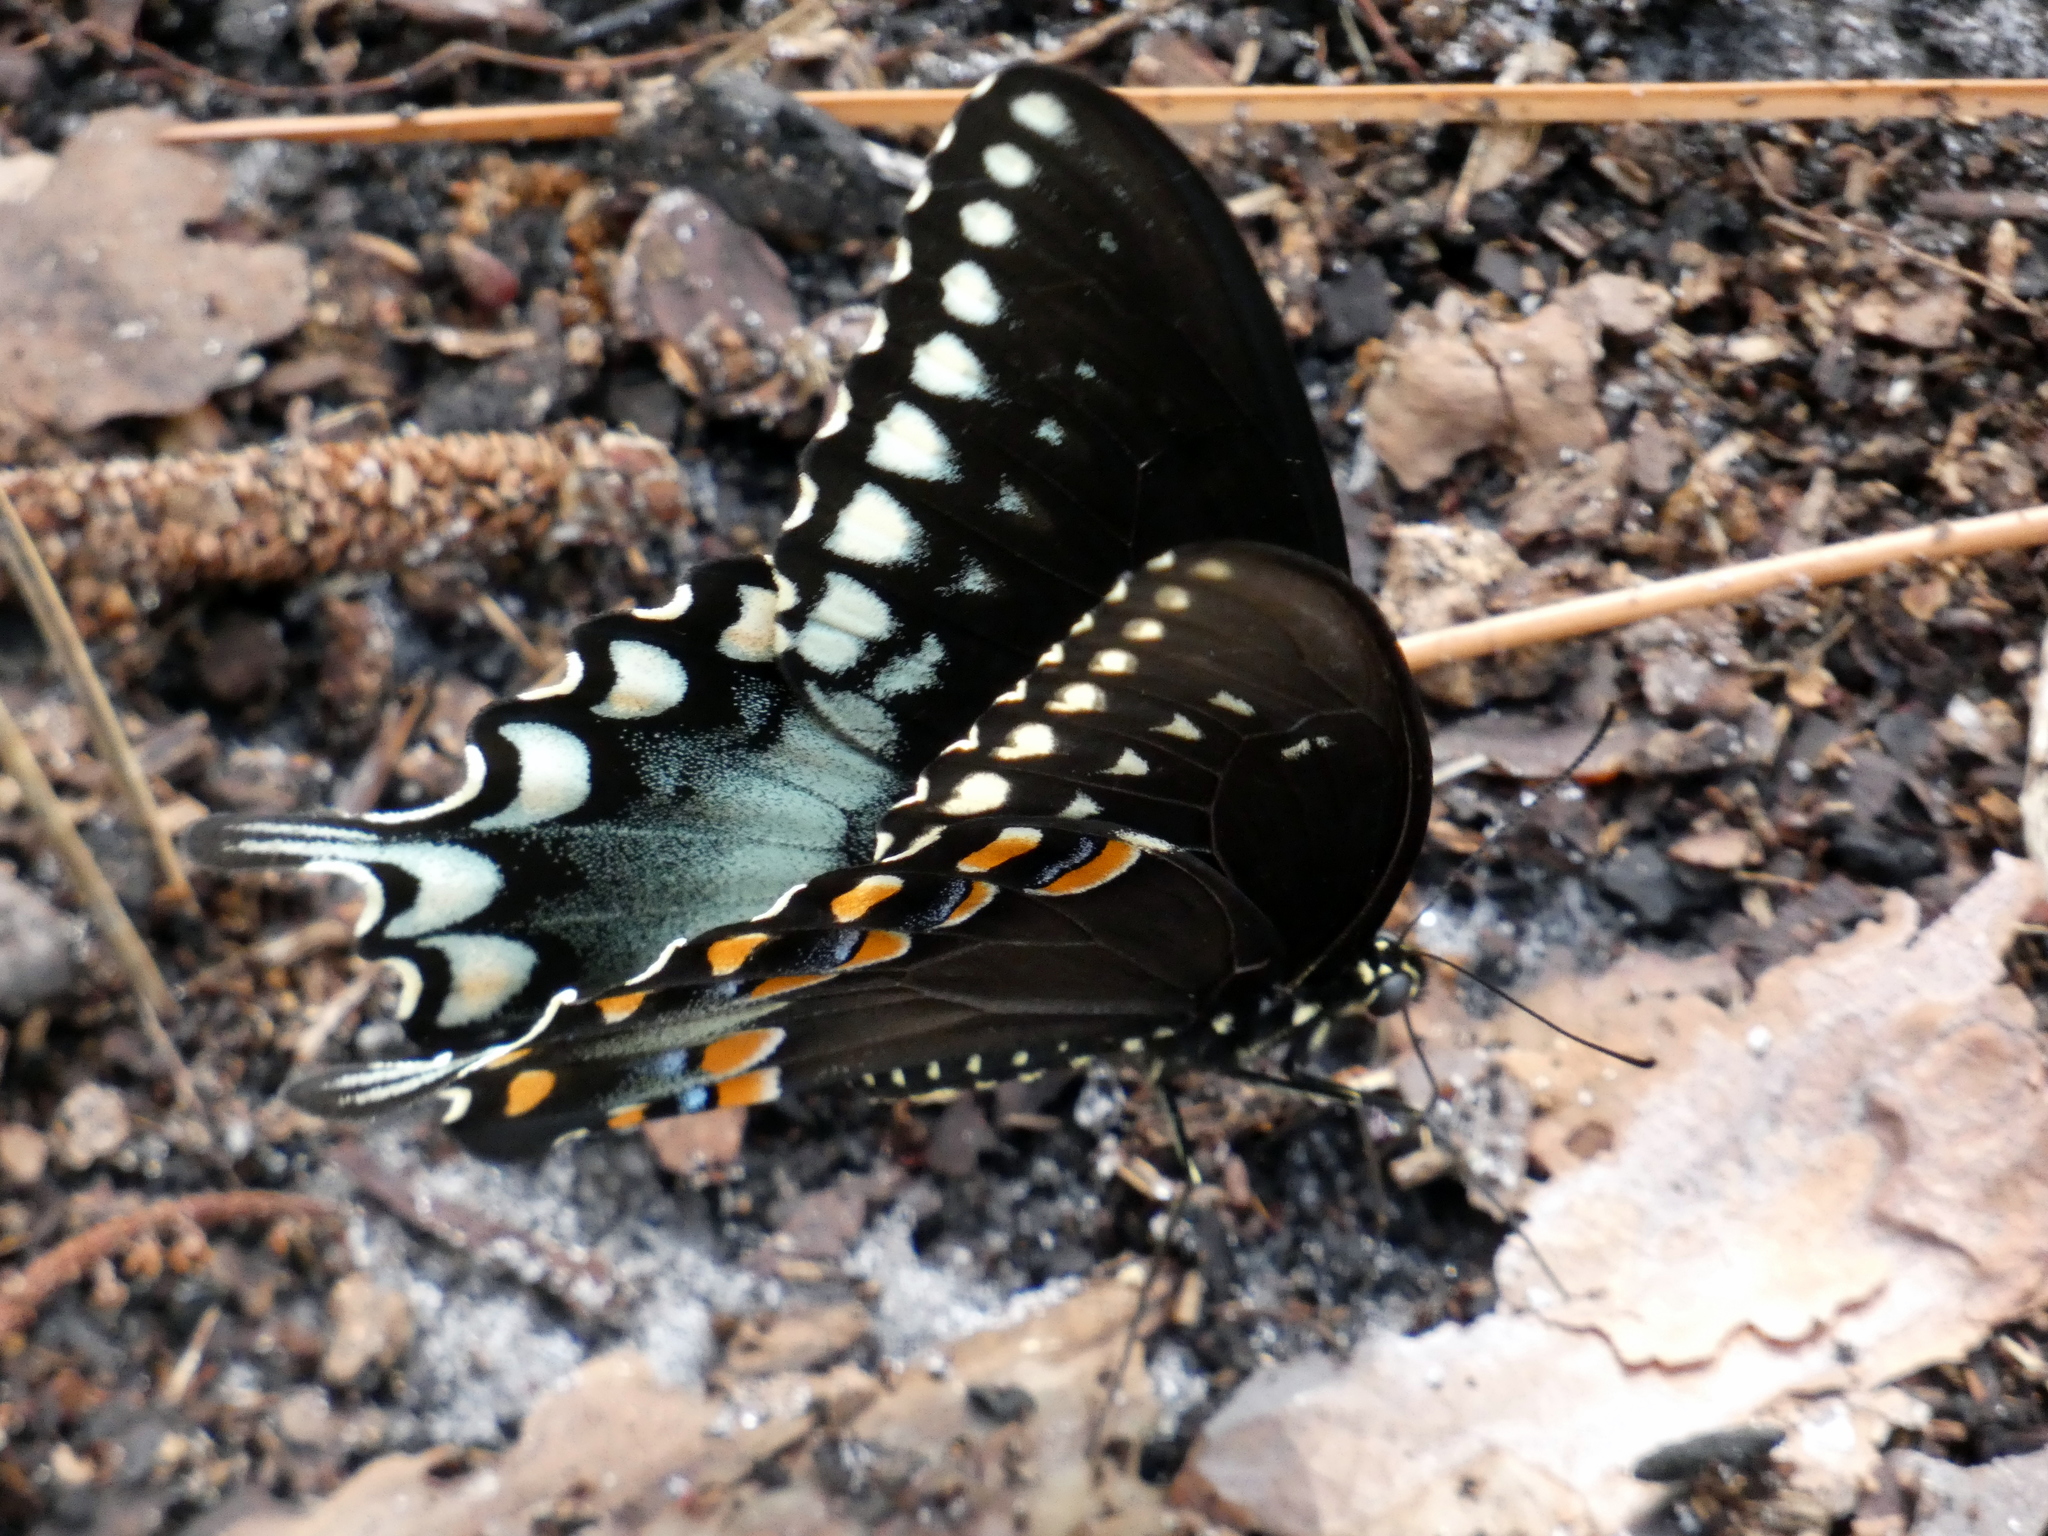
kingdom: Animalia
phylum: Arthropoda
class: Insecta
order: Lepidoptera
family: Papilionidae
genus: Papilio
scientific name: Papilio troilus
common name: Spicebush swallowtail
